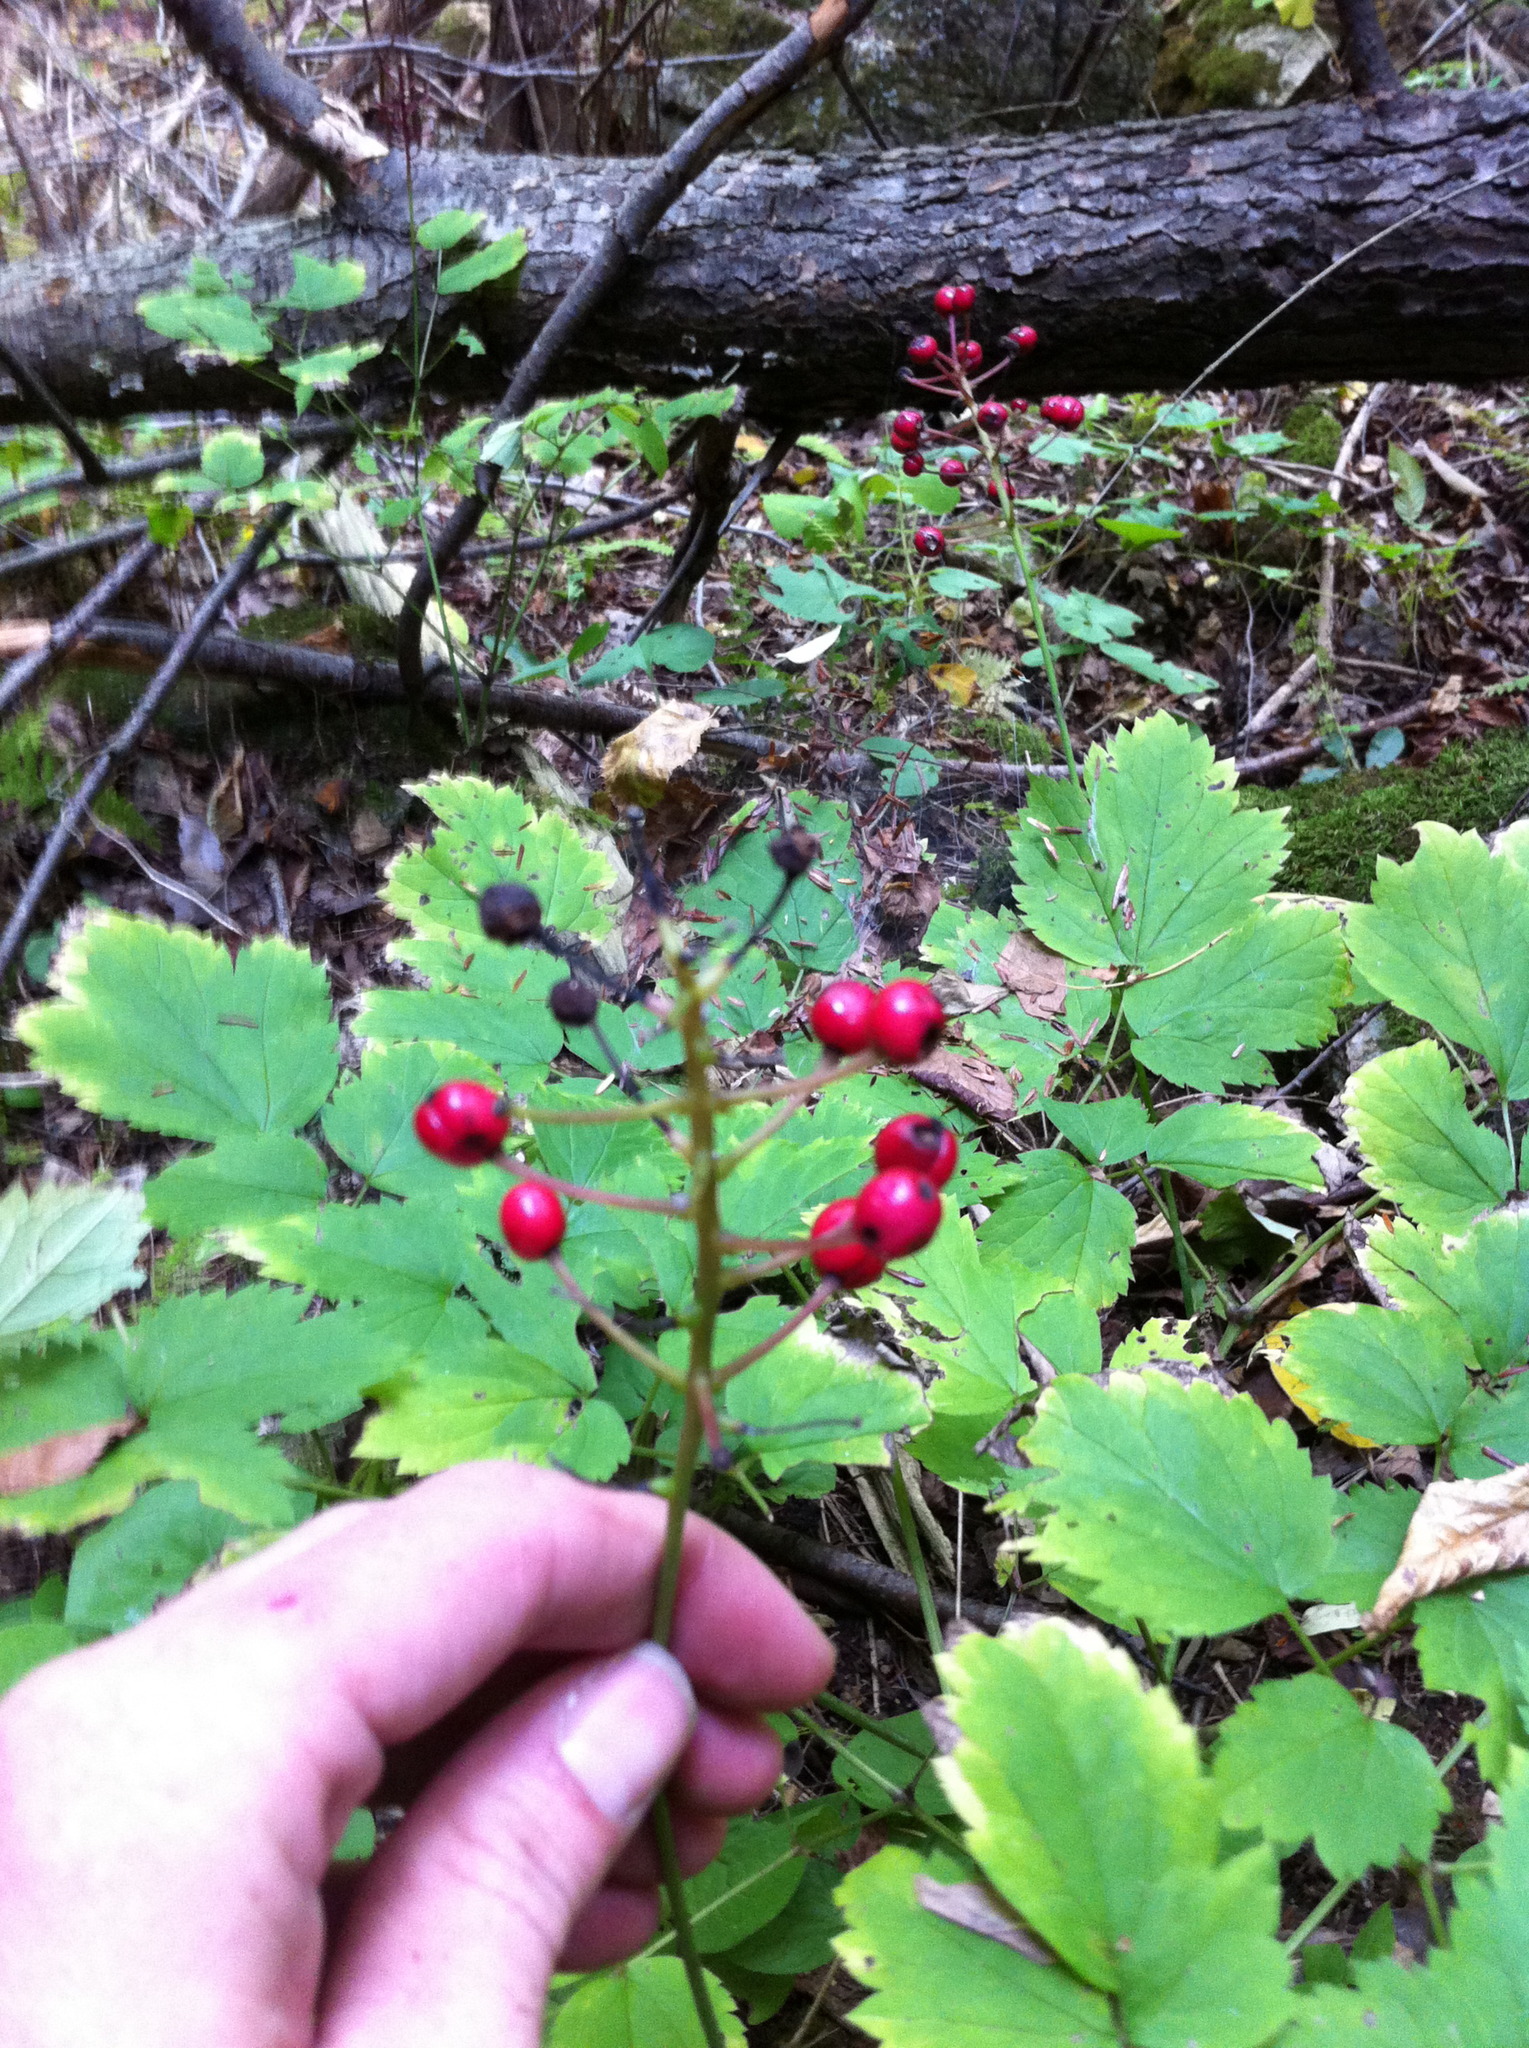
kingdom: Plantae
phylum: Tracheophyta
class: Magnoliopsida
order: Ranunculales
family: Ranunculaceae
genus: Actaea
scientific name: Actaea rubra
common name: Red baneberry
